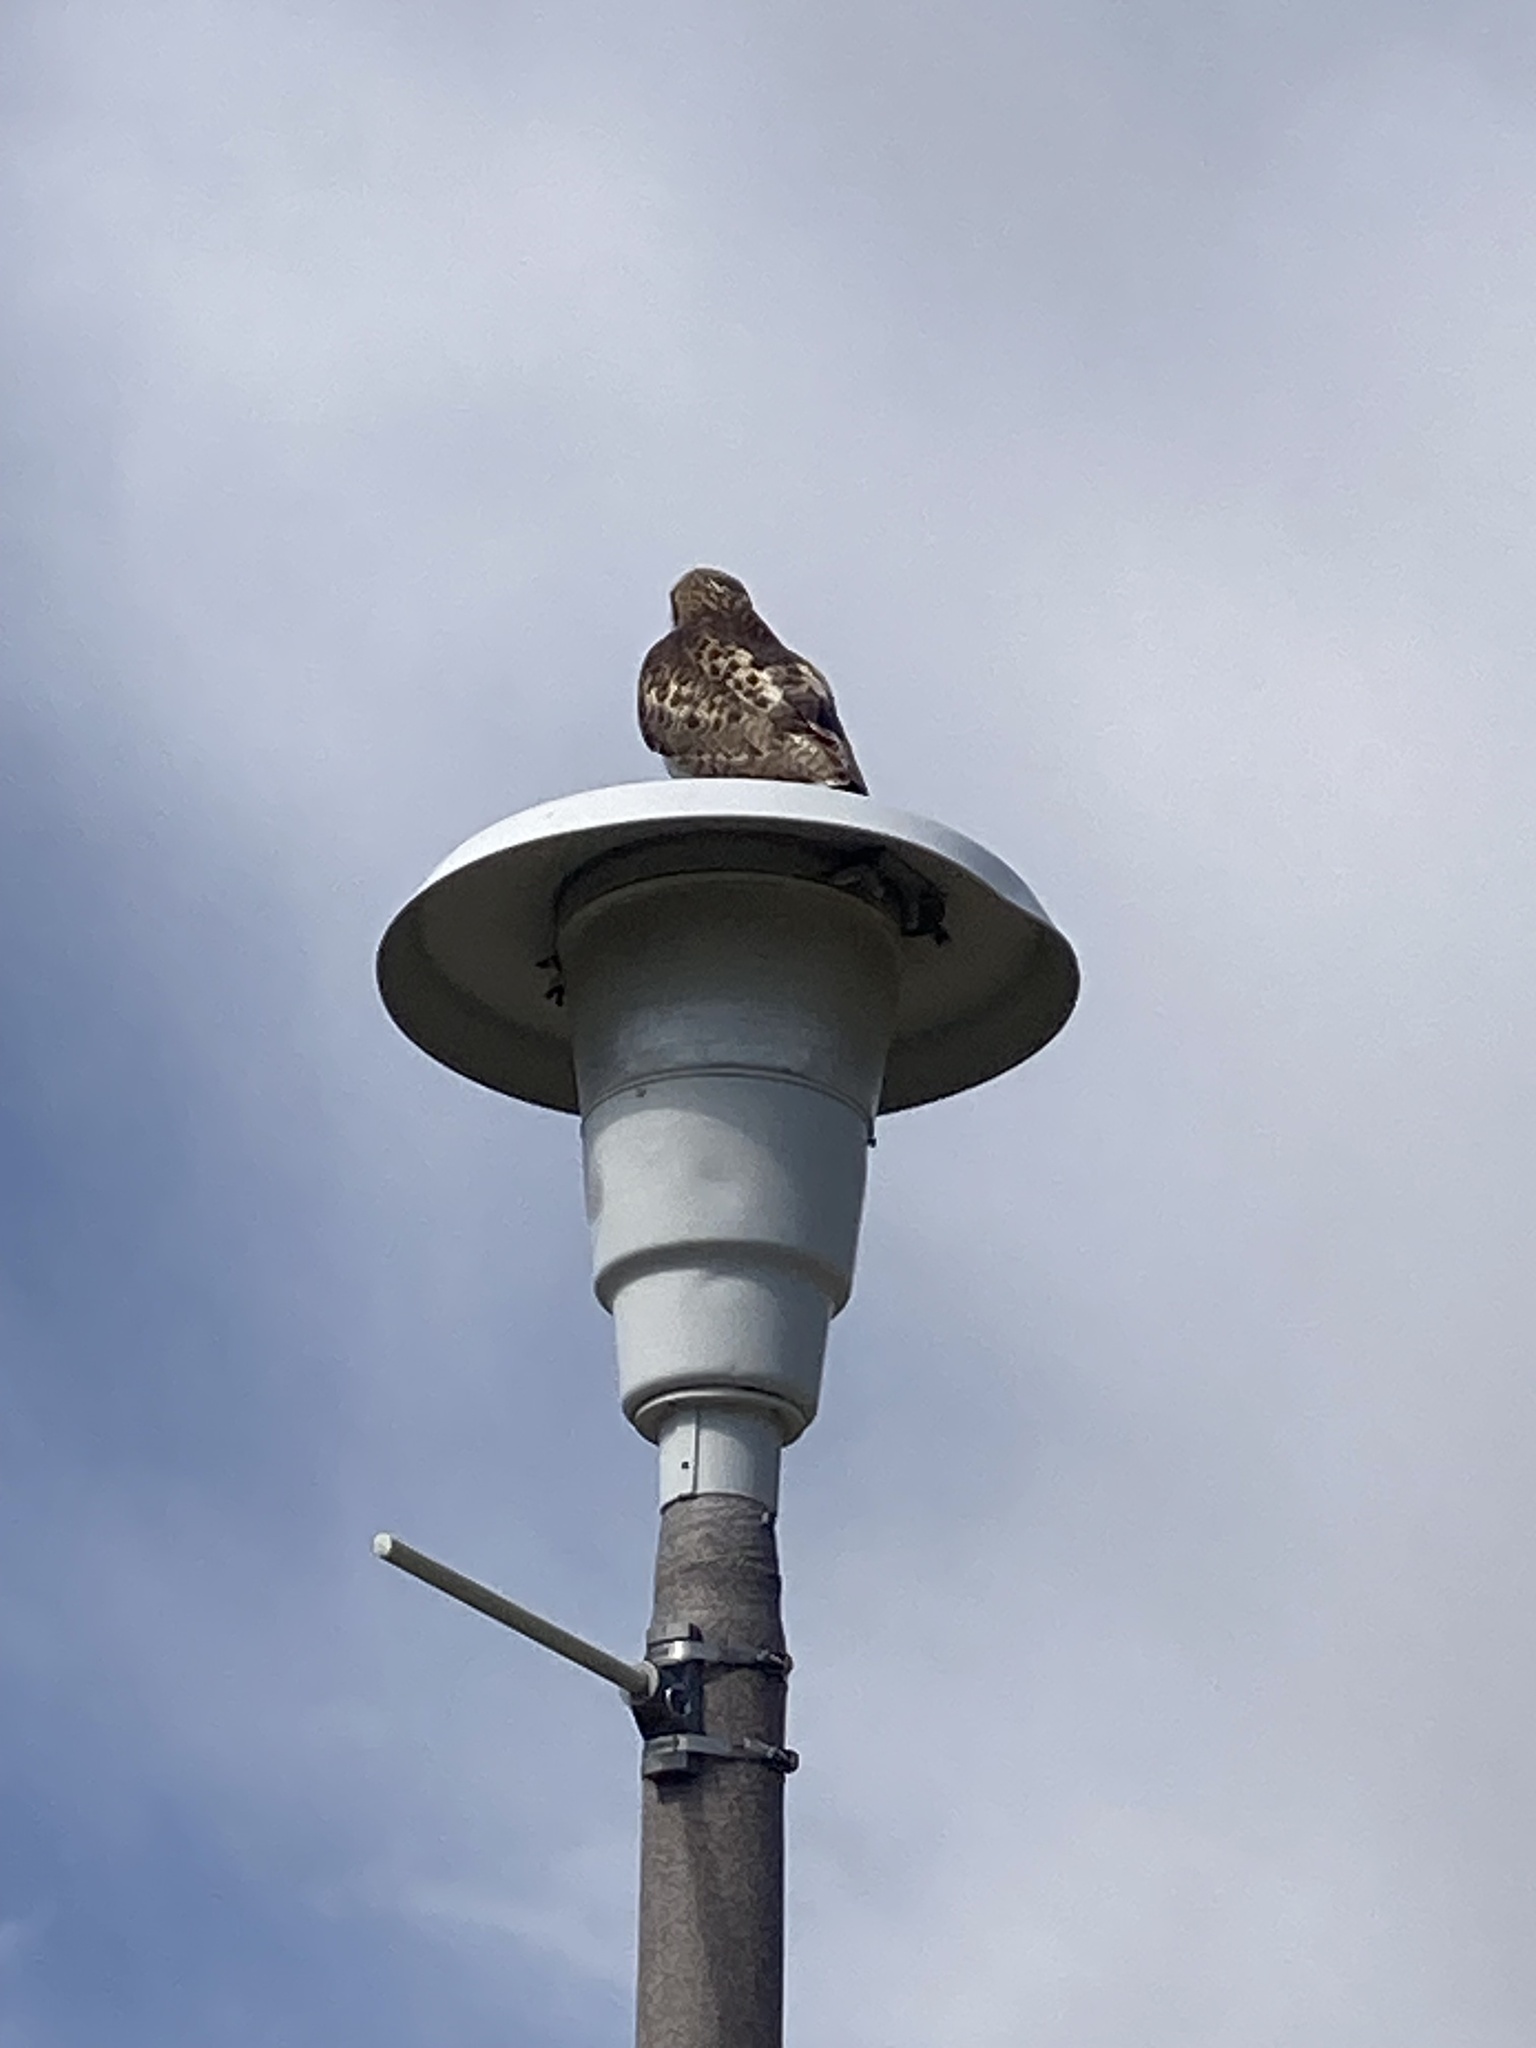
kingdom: Animalia
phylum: Chordata
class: Aves
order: Accipitriformes
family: Accipitridae
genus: Buteo
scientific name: Buteo jamaicensis
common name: Red-tailed hawk
